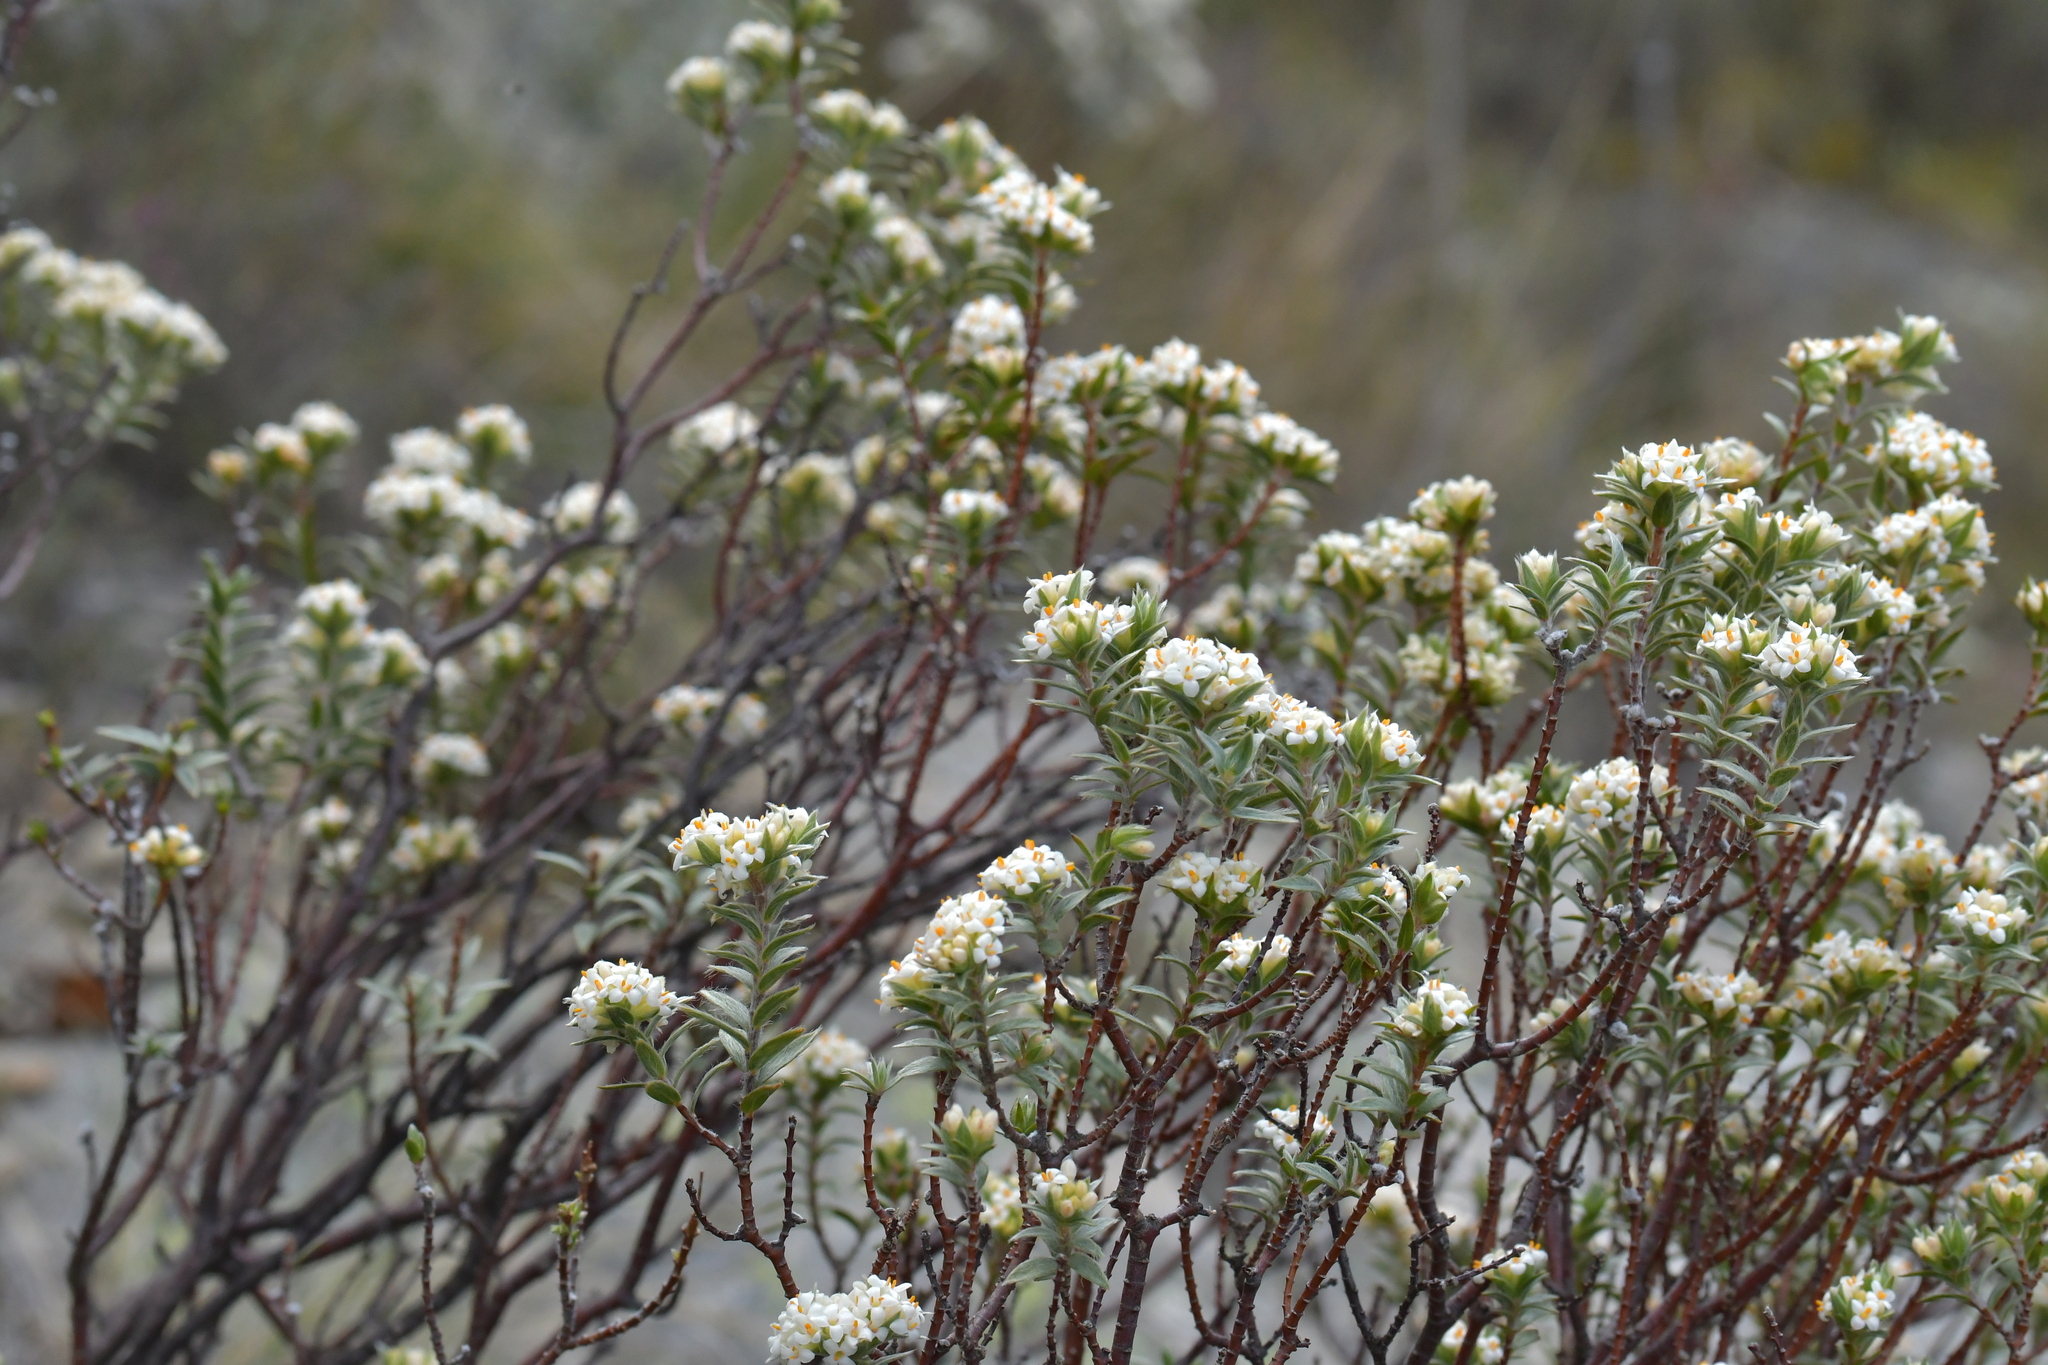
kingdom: Plantae
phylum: Tracheophyta
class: Magnoliopsida
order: Malvales
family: Thymelaeaceae
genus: Pimelea
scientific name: Pimelea aridula
